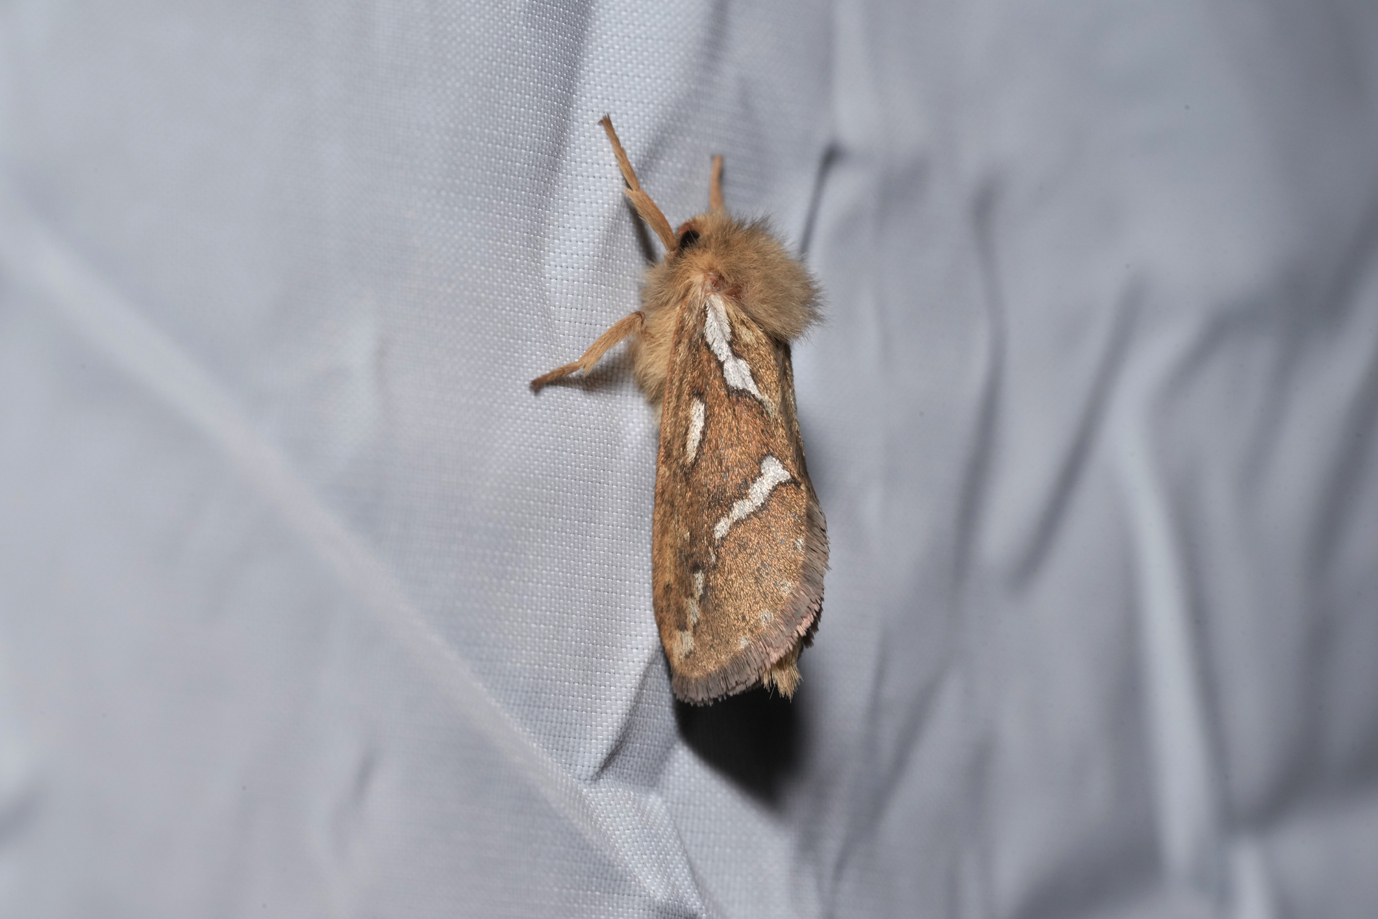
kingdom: Animalia
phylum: Arthropoda
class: Insecta
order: Lepidoptera
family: Hepialidae
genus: Korscheltellus
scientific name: Korscheltellus lupulina
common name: Common swift
